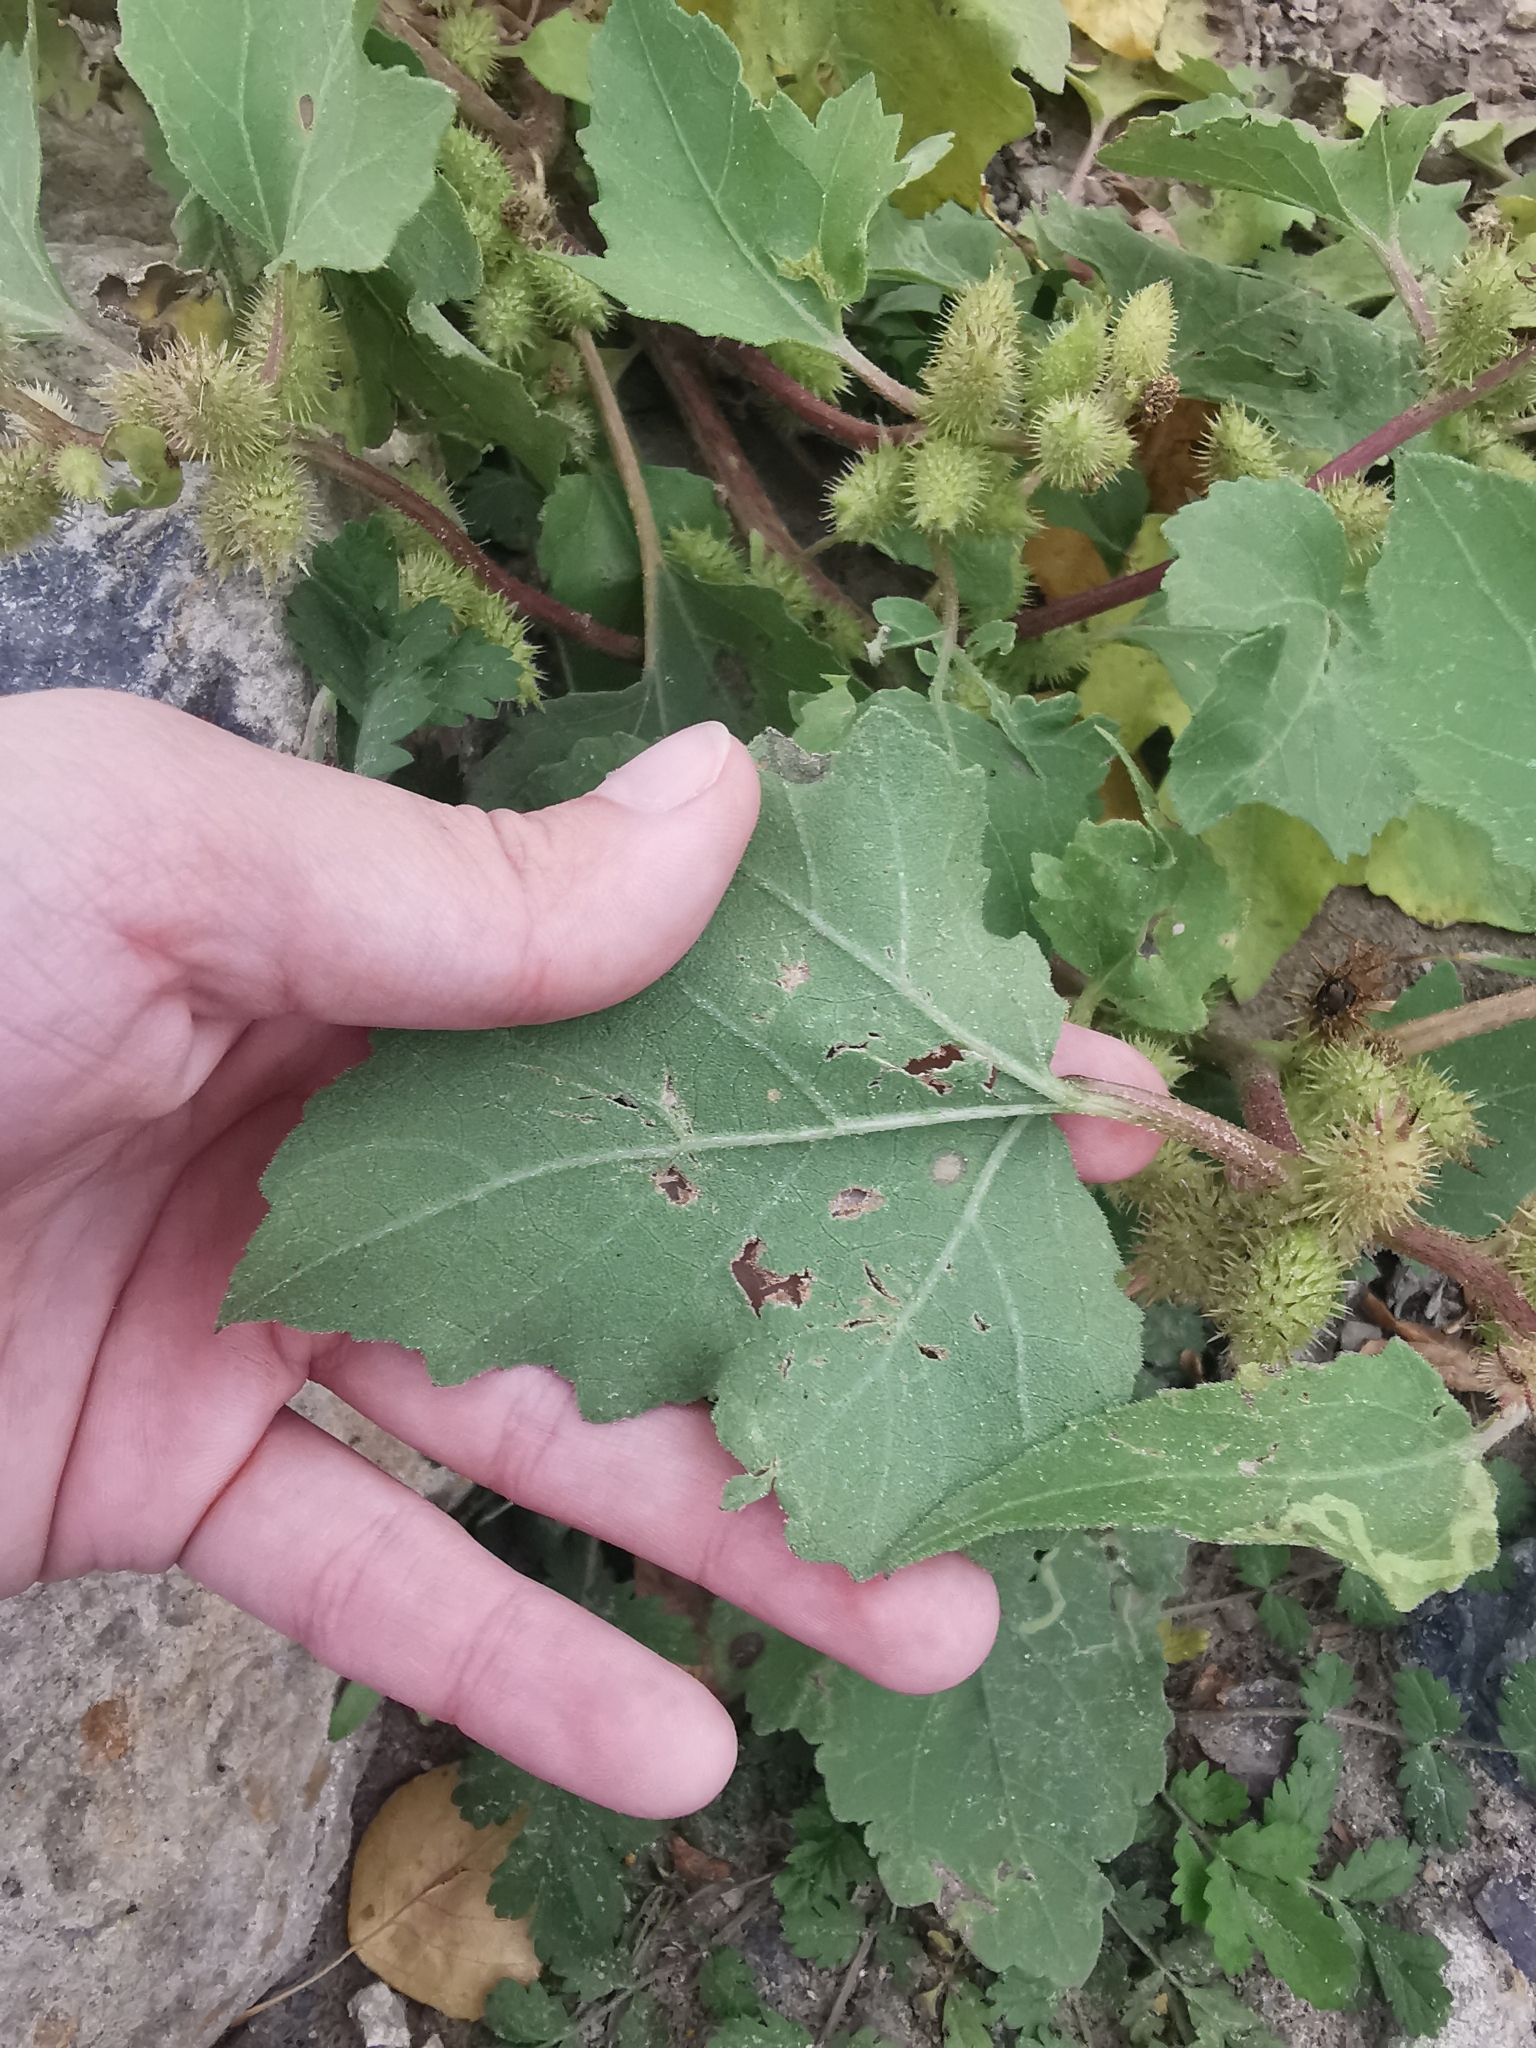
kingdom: Plantae
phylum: Tracheophyta
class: Magnoliopsida
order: Asterales
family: Asteraceae
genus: Xanthium
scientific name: Xanthium orientale
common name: Californian burr
